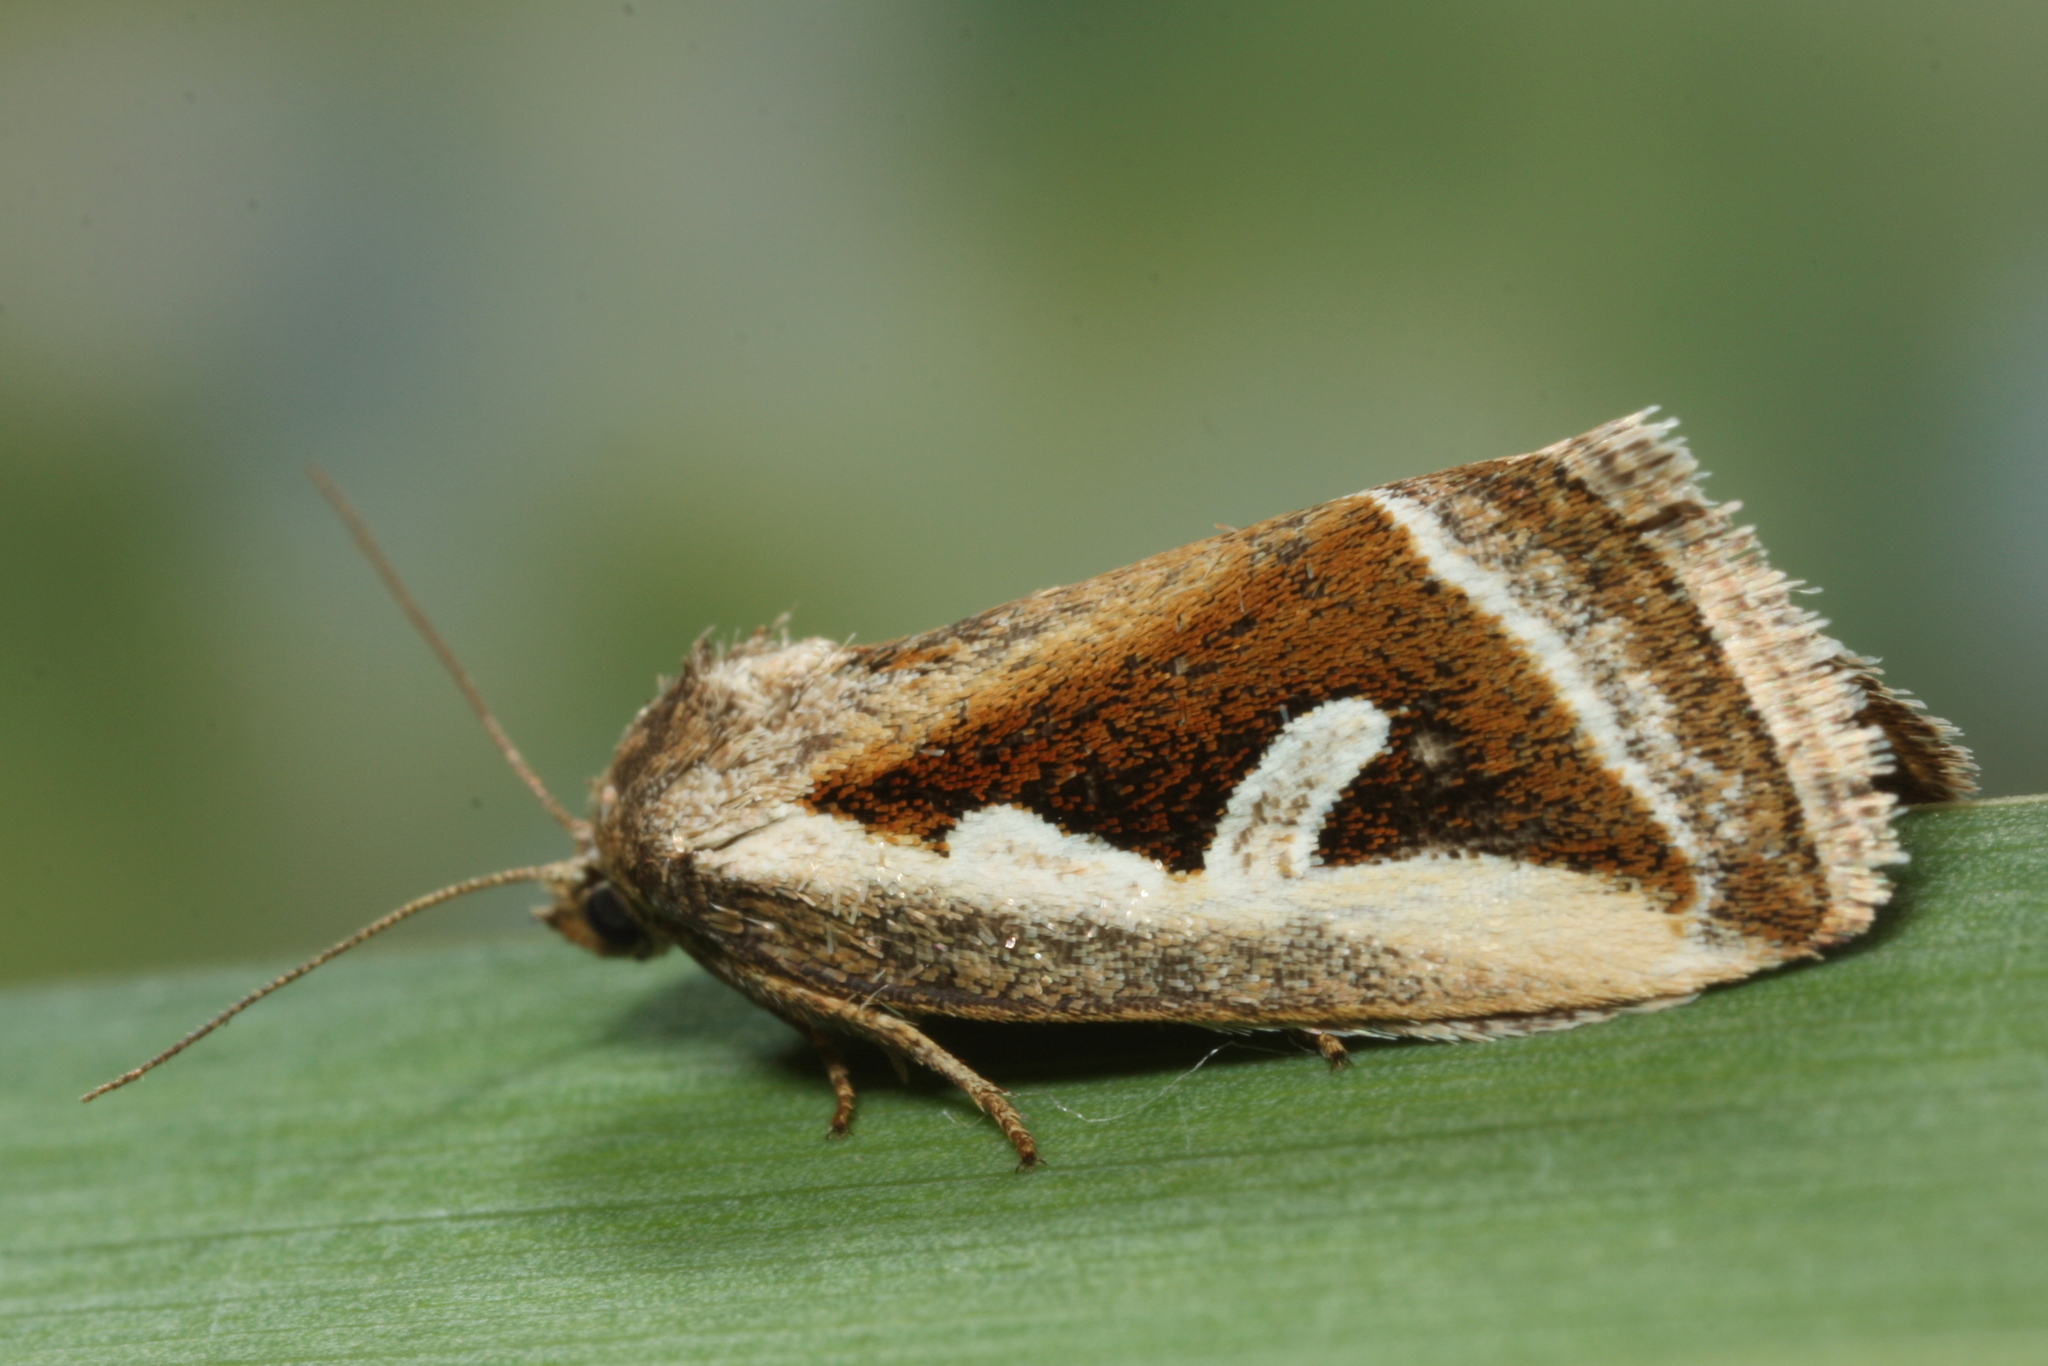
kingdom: Animalia
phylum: Arthropoda
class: Insecta
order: Lepidoptera
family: Noctuidae
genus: Deltote
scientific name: Deltote uncula
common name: Silver hook
